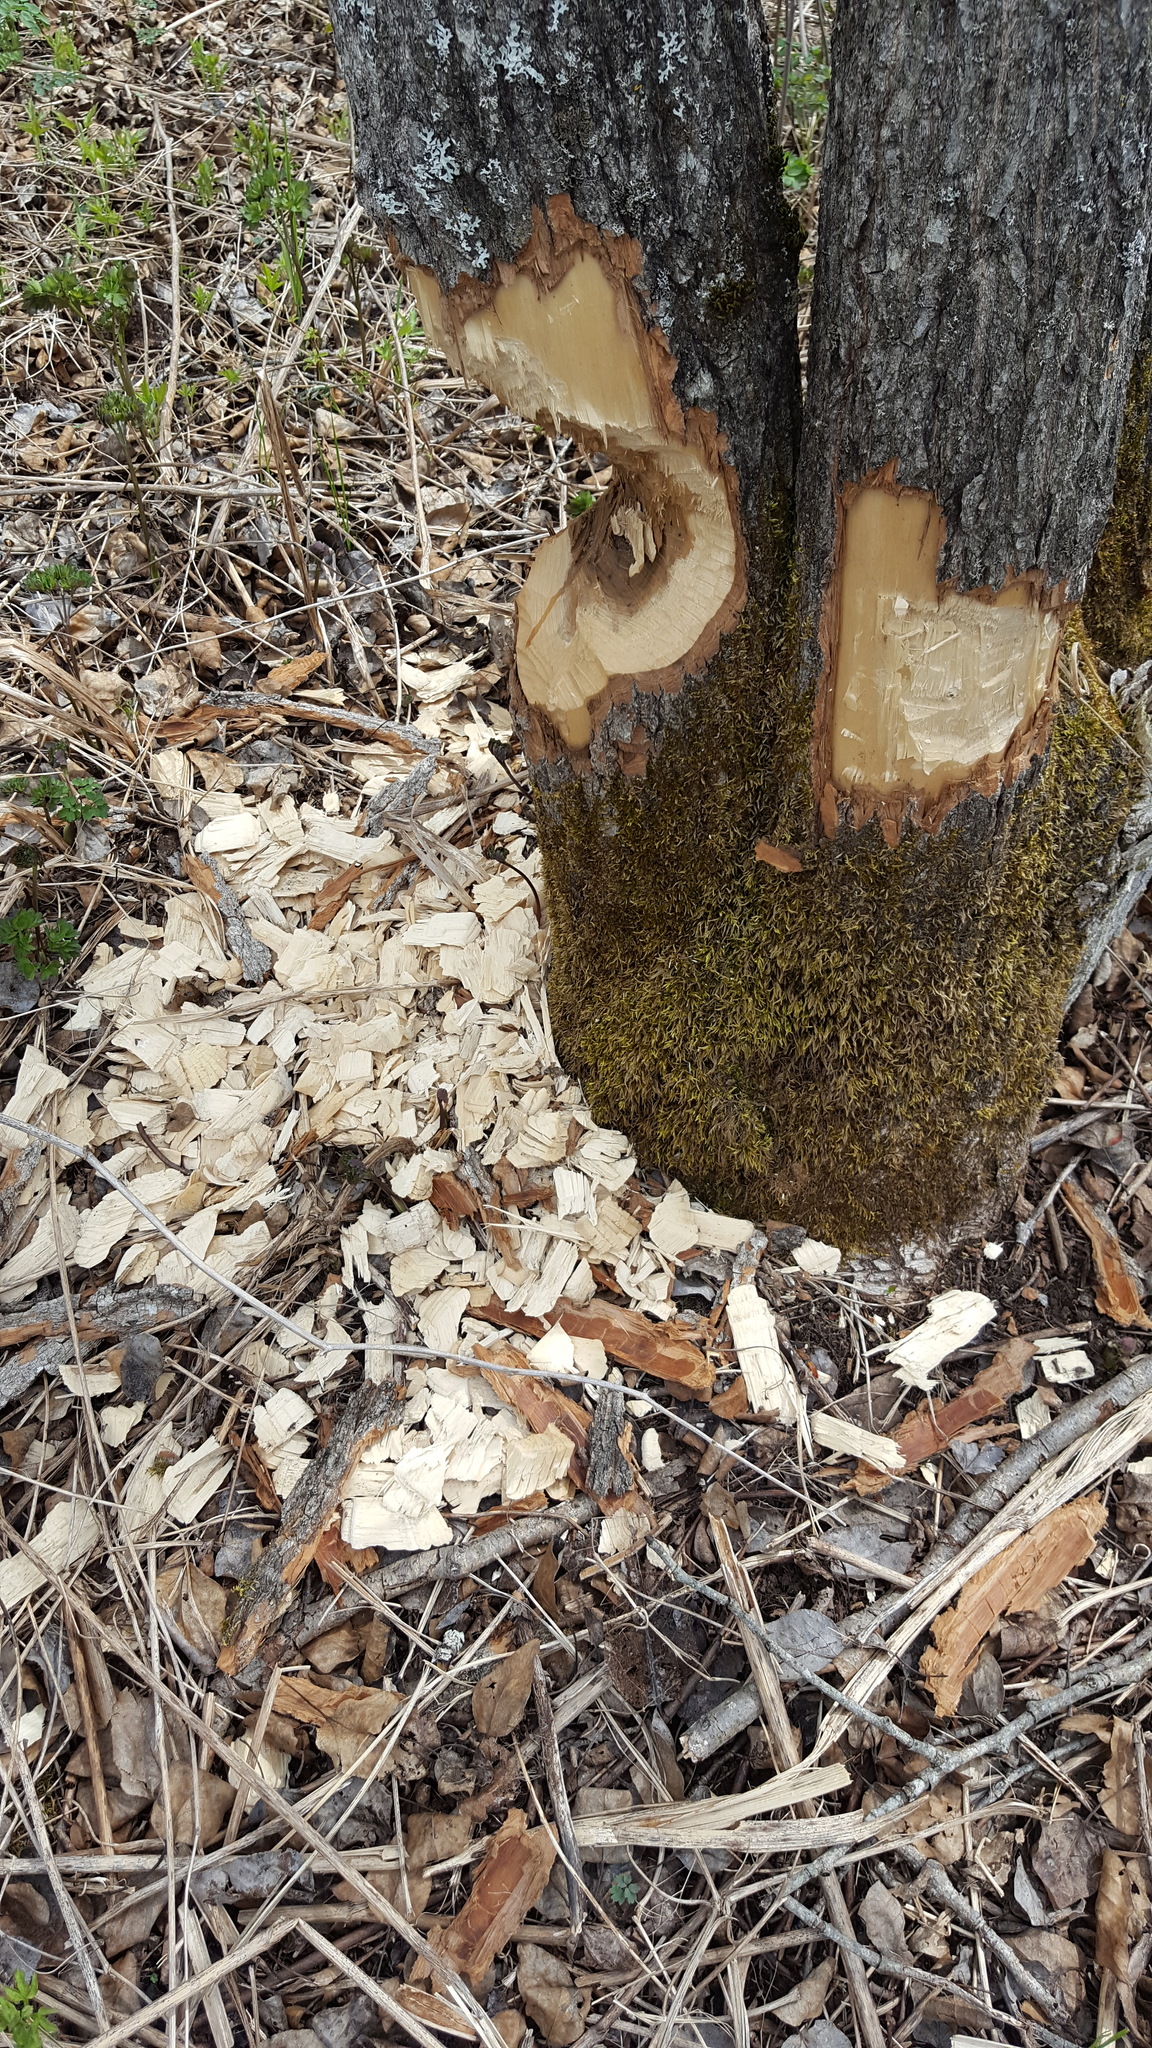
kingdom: Animalia
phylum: Chordata
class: Mammalia
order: Rodentia
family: Castoridae
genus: Castor
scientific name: Castor canadensis
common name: American beaver
